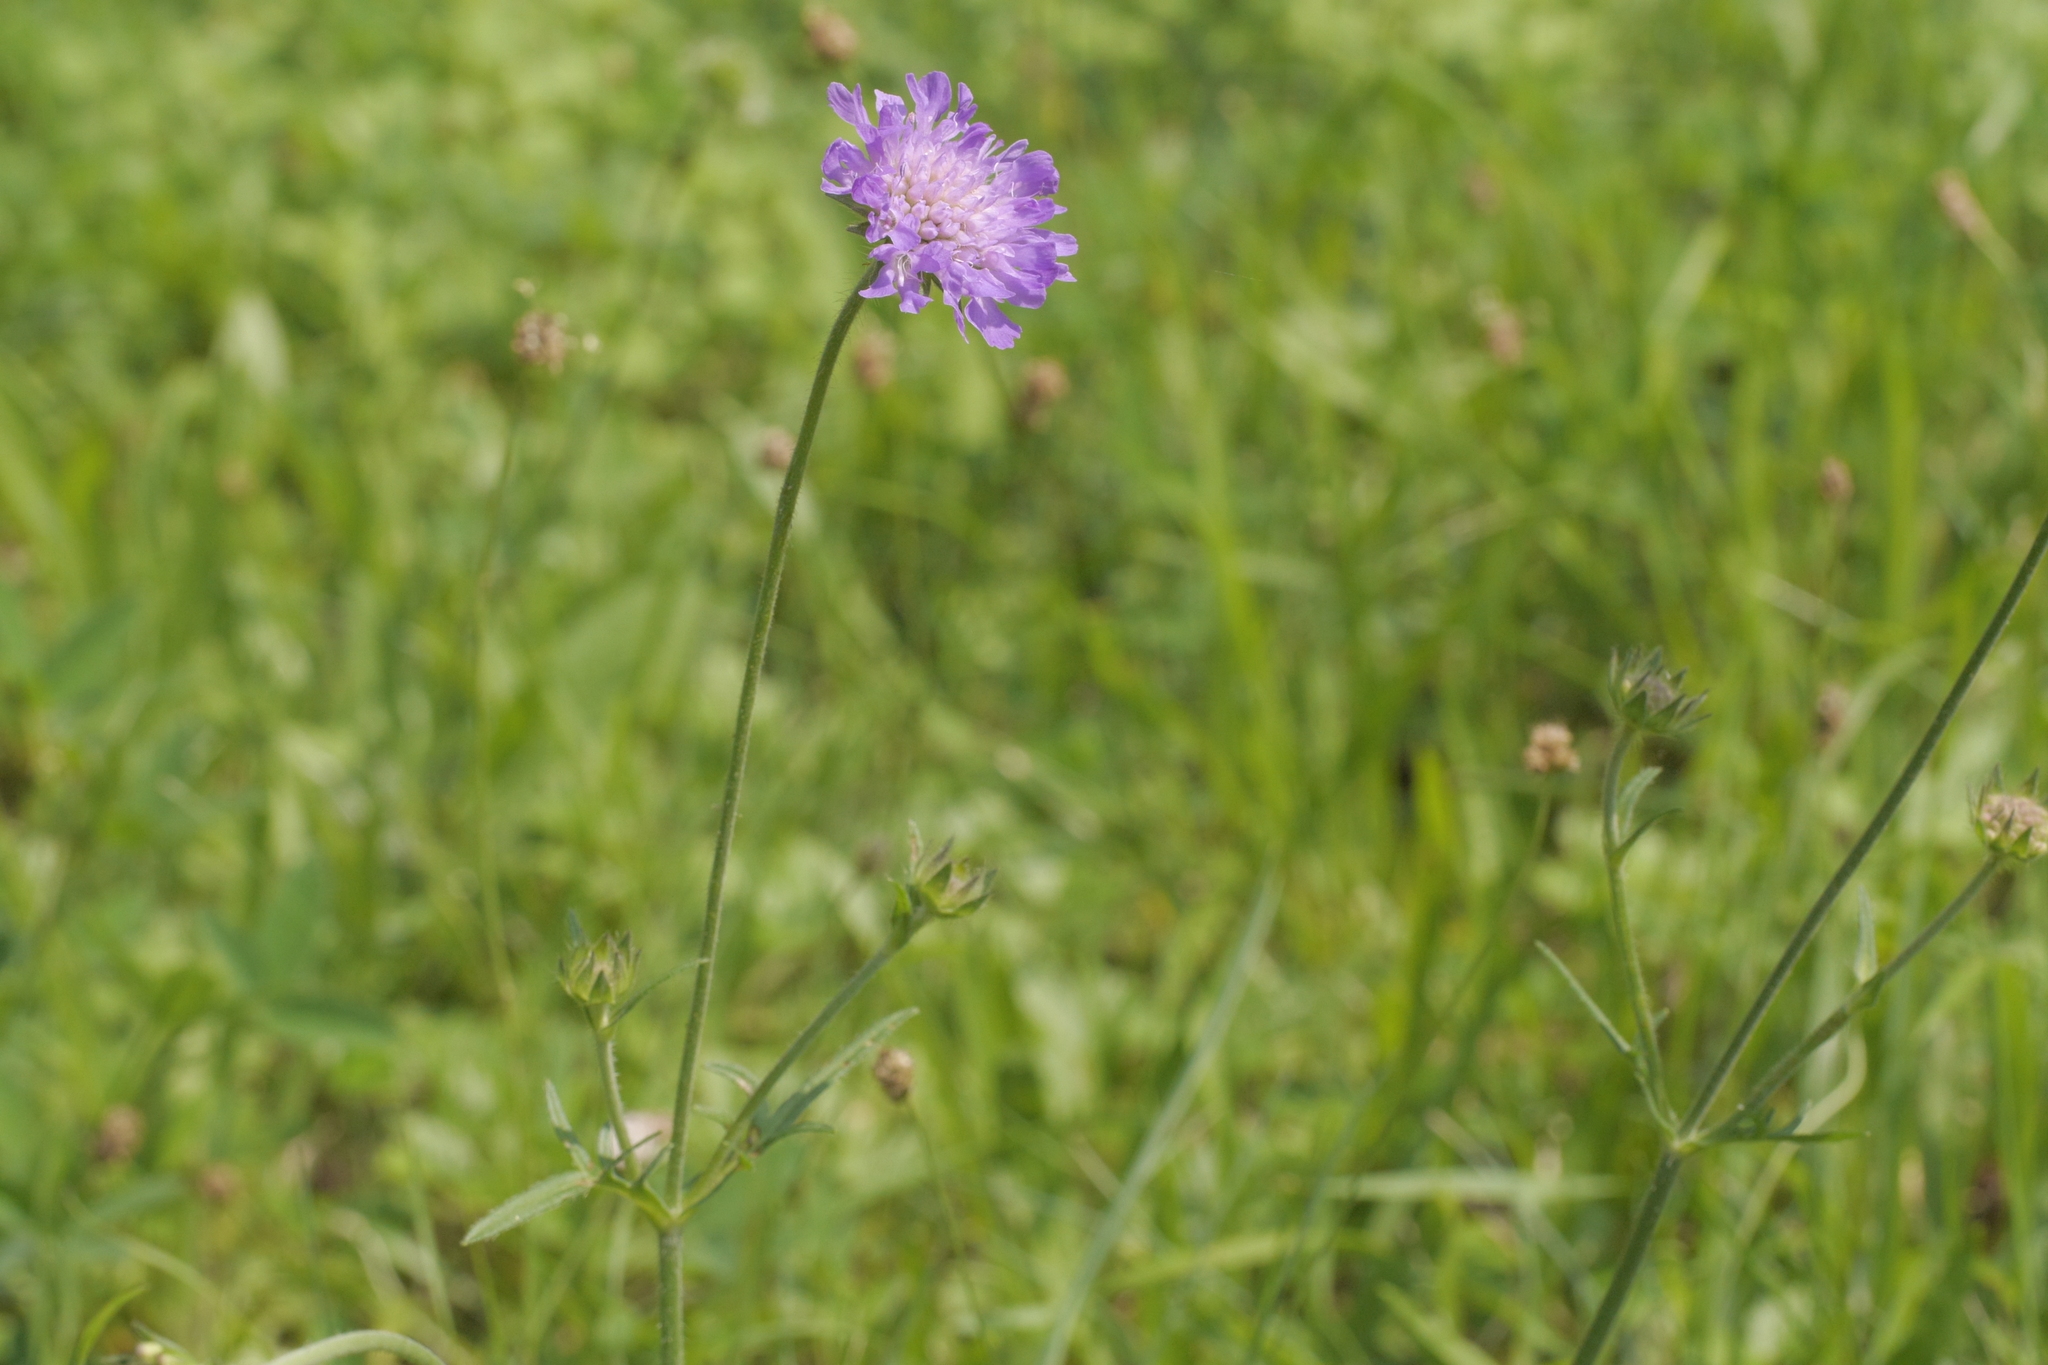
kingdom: Plantae
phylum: Tracheophyta
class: Magnoliopsida
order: Dipsacales
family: Caprifoliaceae
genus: Knautia
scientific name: Knautia arvensis
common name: Field scabiosa
